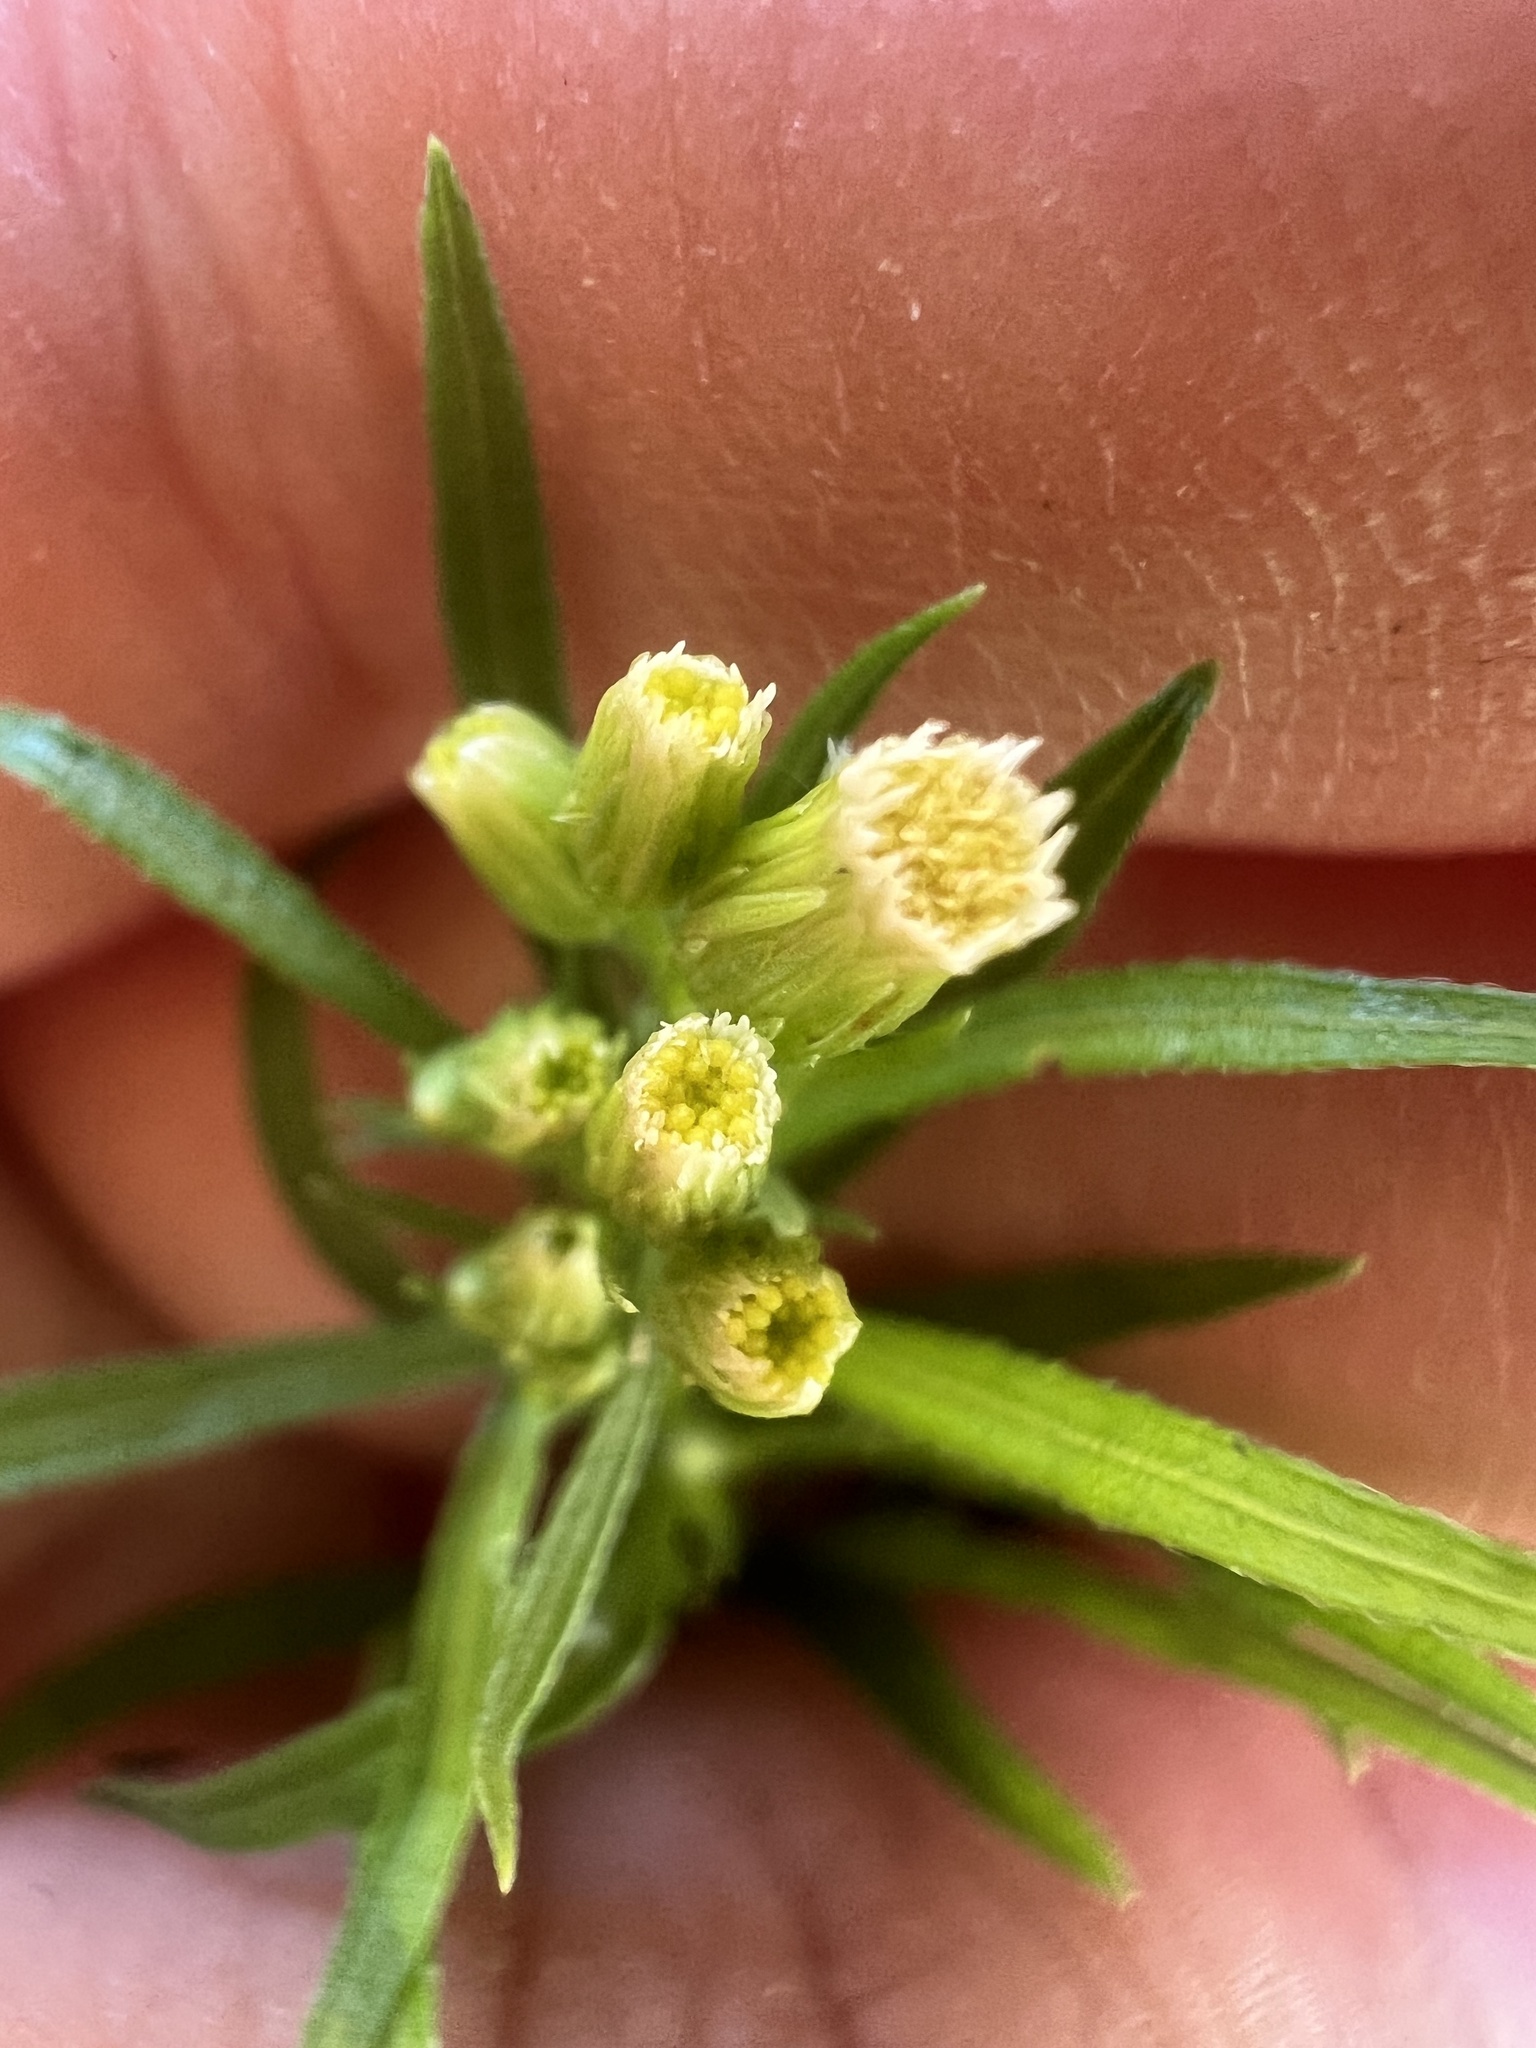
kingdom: Plantae
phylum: Tracheophyta
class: Magnoliopsida
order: Asterales
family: Asteraceae
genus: Erigeron
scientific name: Erigeron canadensis
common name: Canadian fleabane
